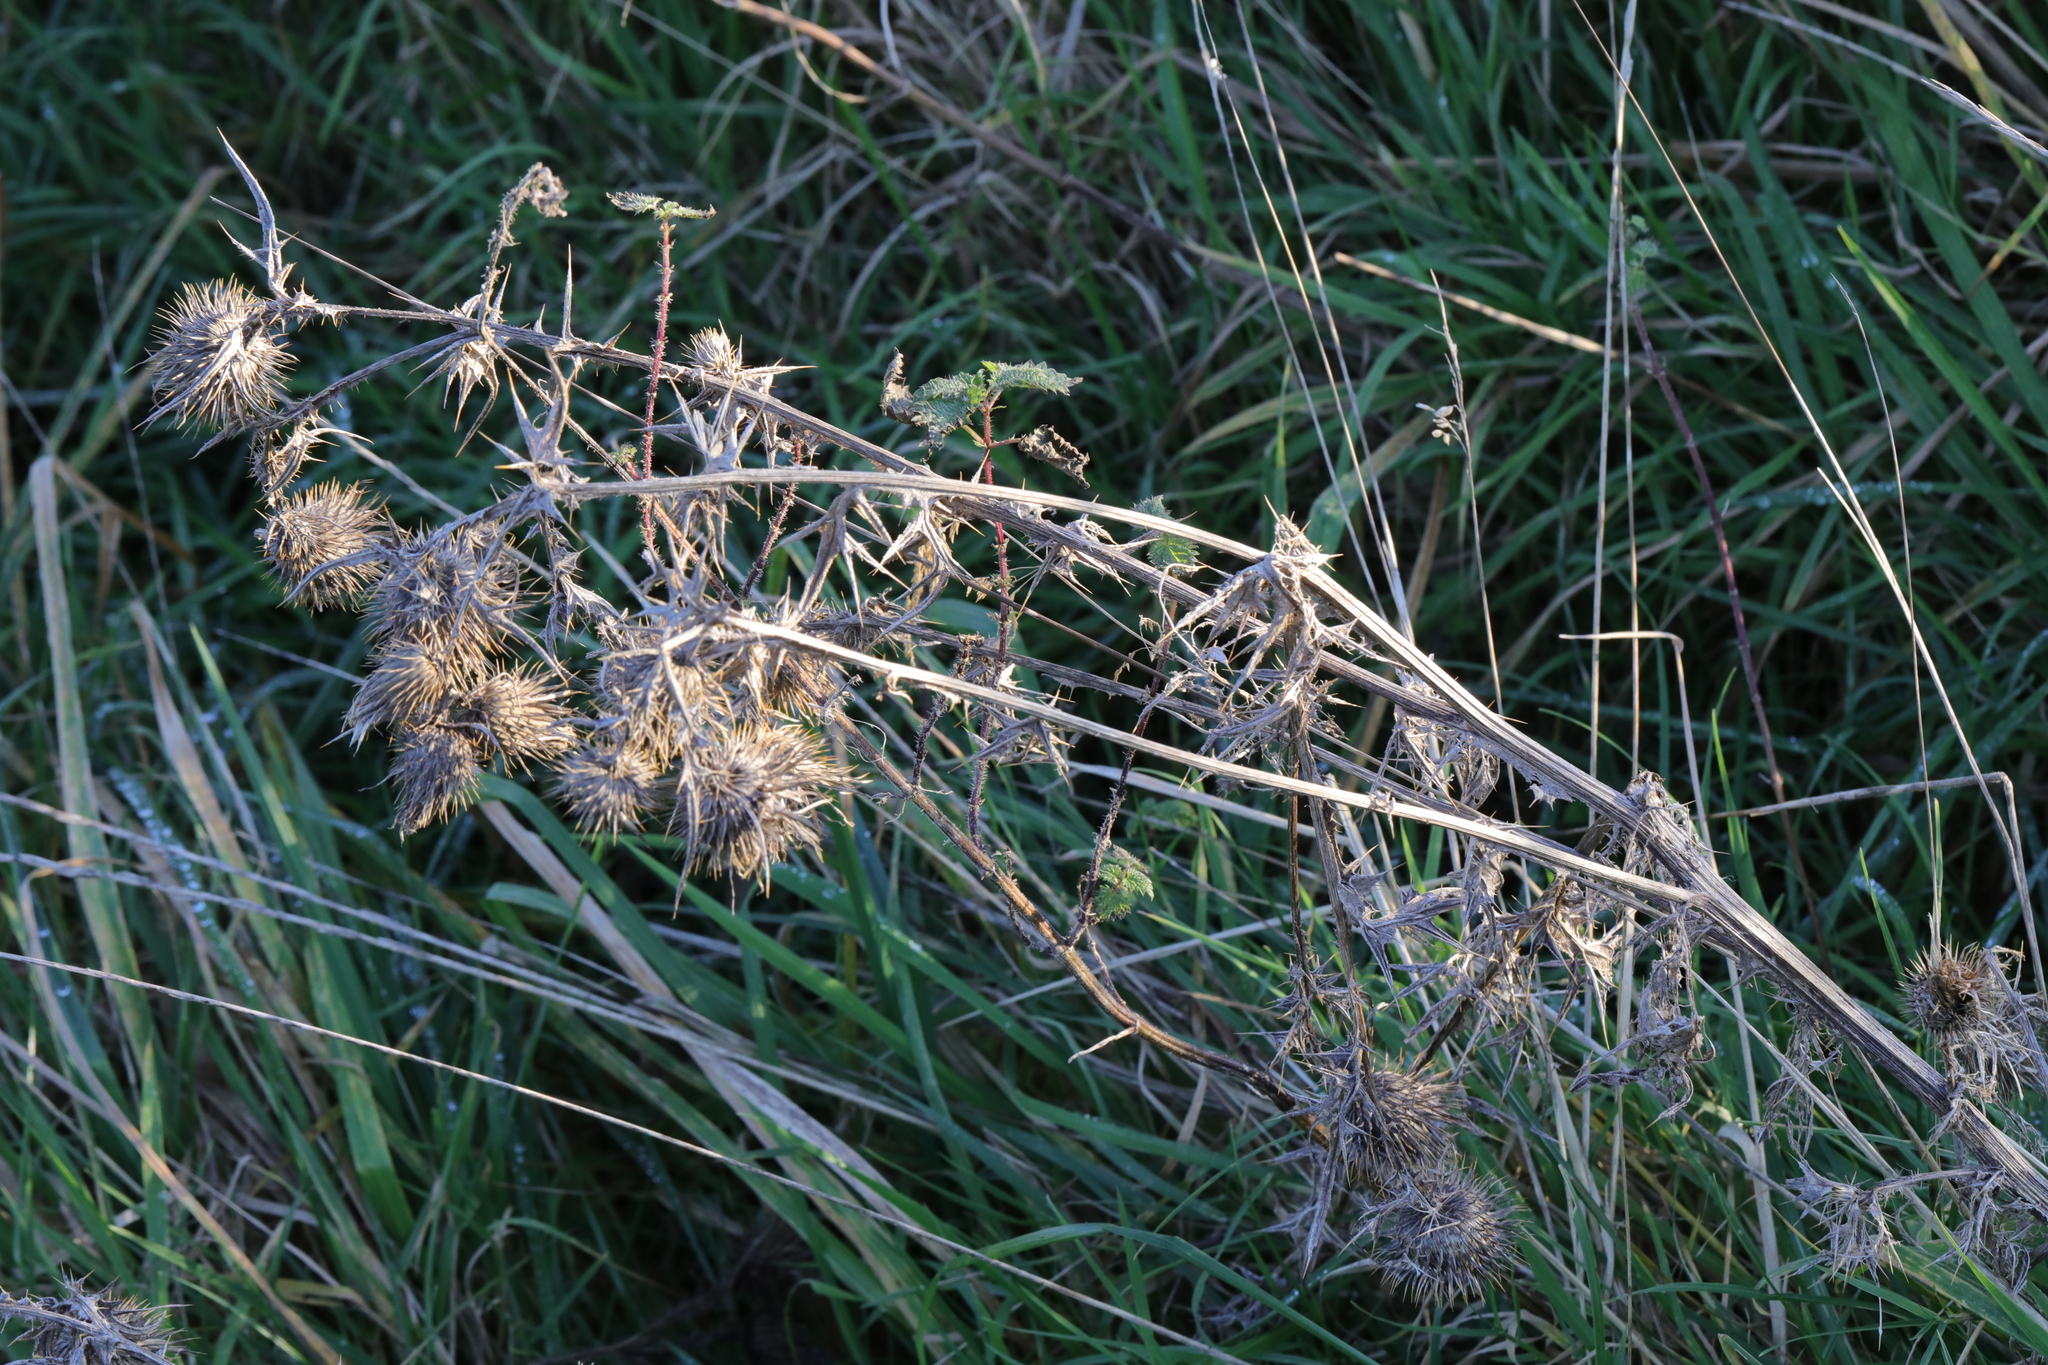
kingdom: Plantae
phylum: Tracheophyta
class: Magnoliopsida
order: Asterales
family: Asteraceae
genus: Cirsium
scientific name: Cirsium vulgare
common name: Bull thistle
